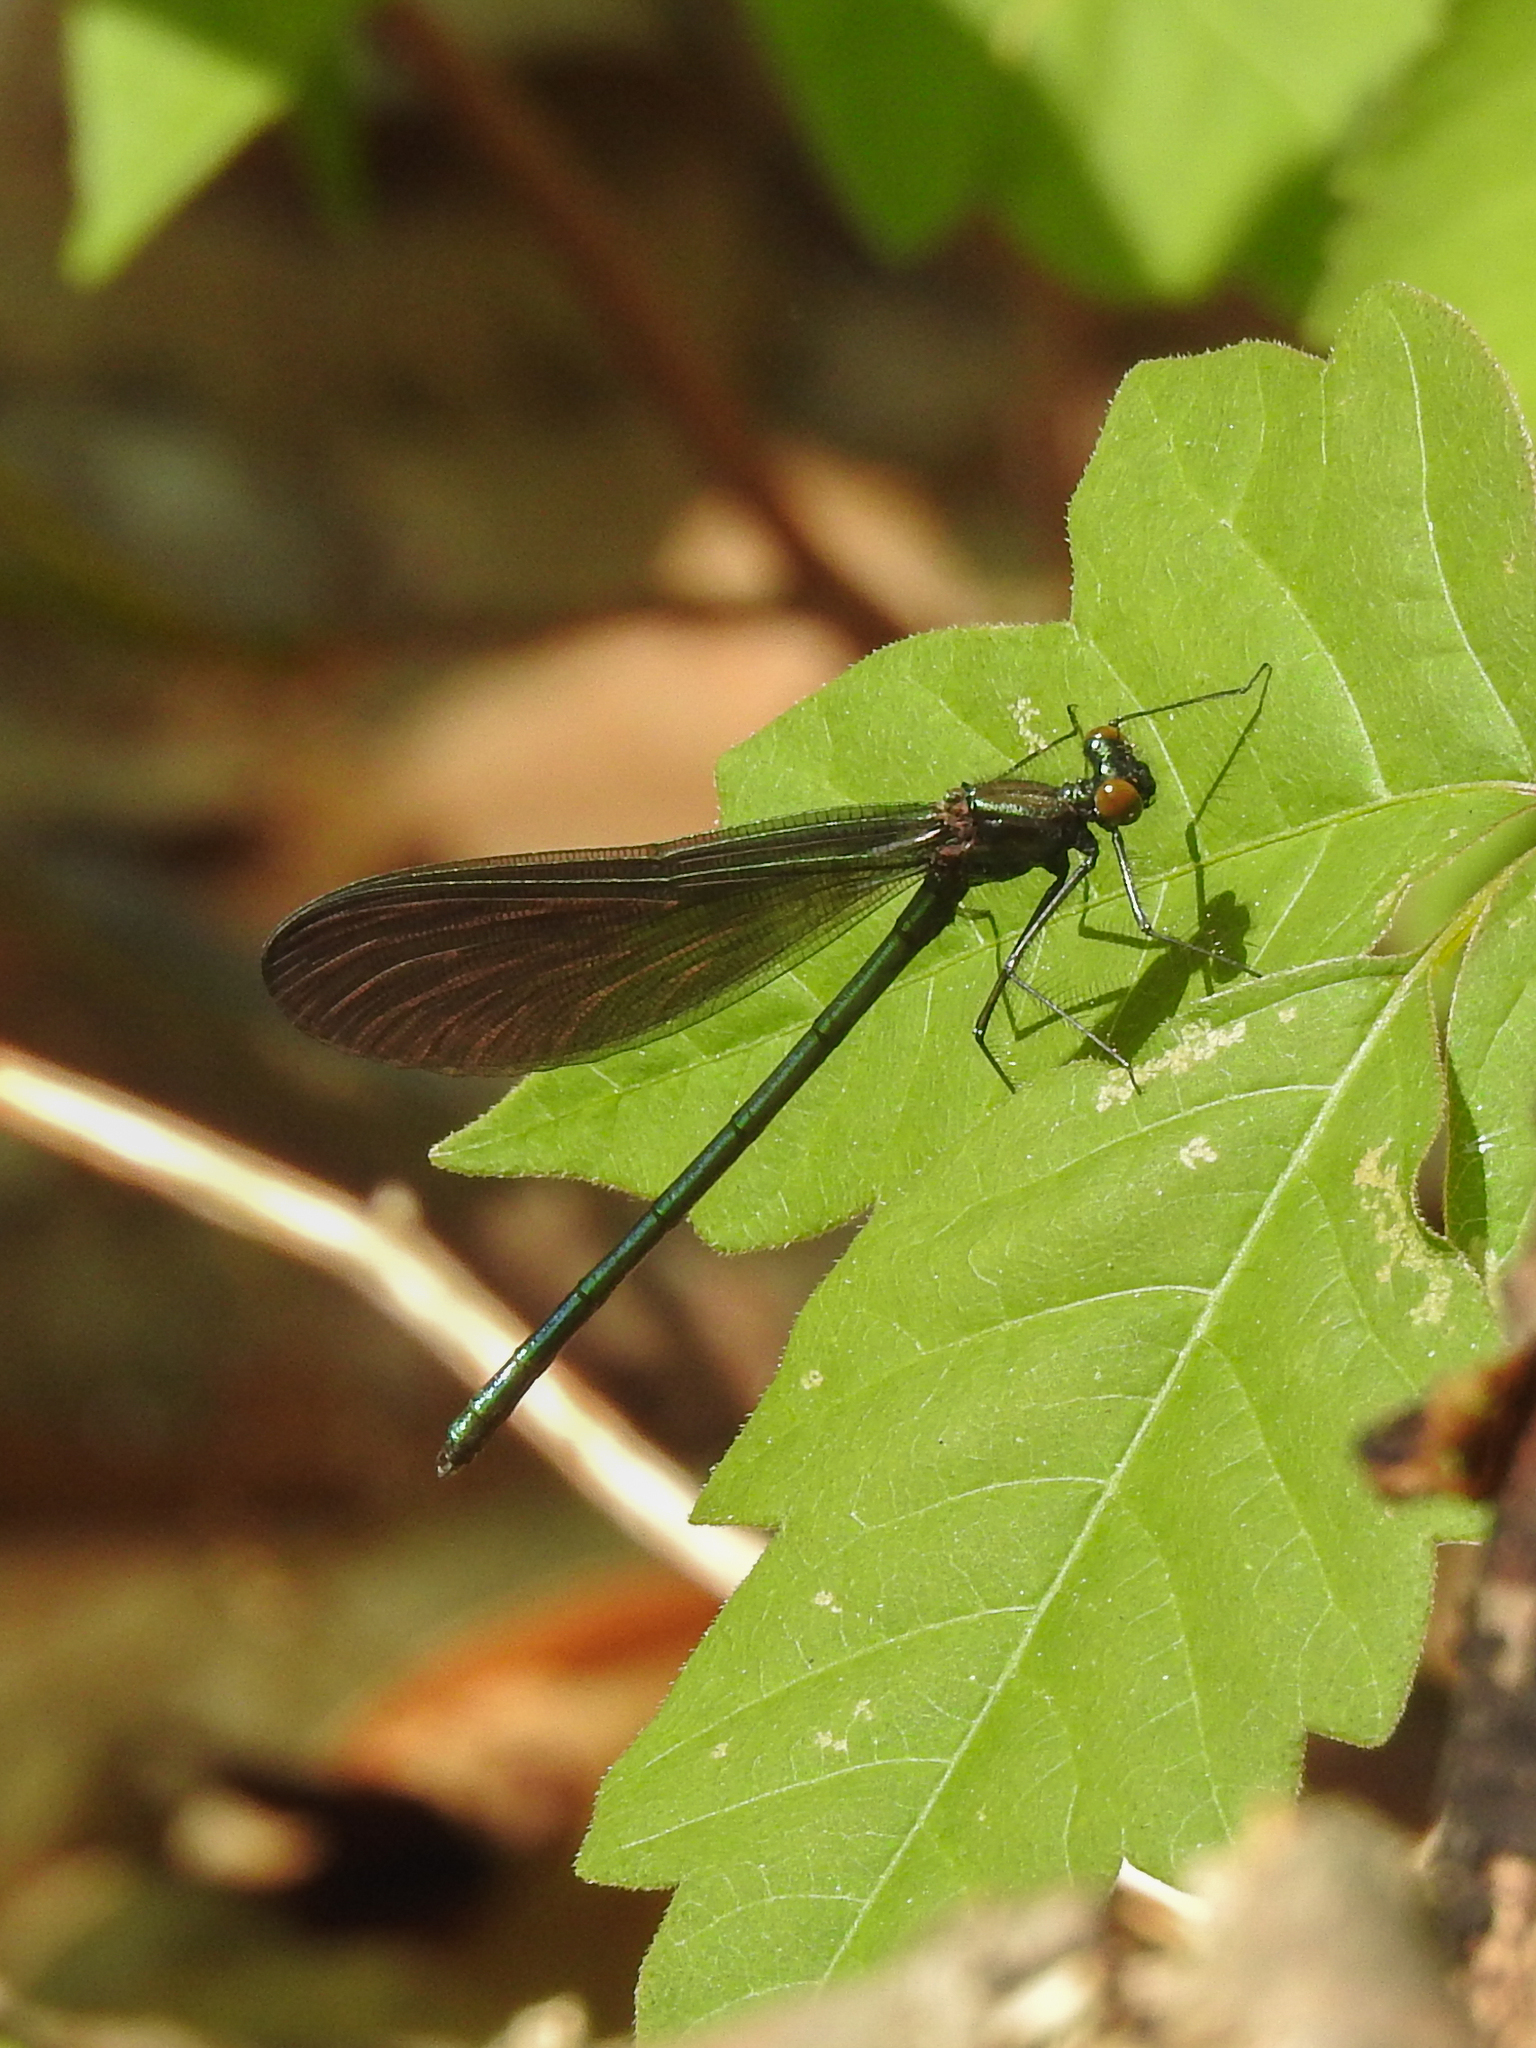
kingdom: Animalia
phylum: Arthropoda
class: Insecta
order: Odonata
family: Calopterygidae
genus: Calopteryx
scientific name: Calopteryx maculata
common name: Ebony jewelwing
